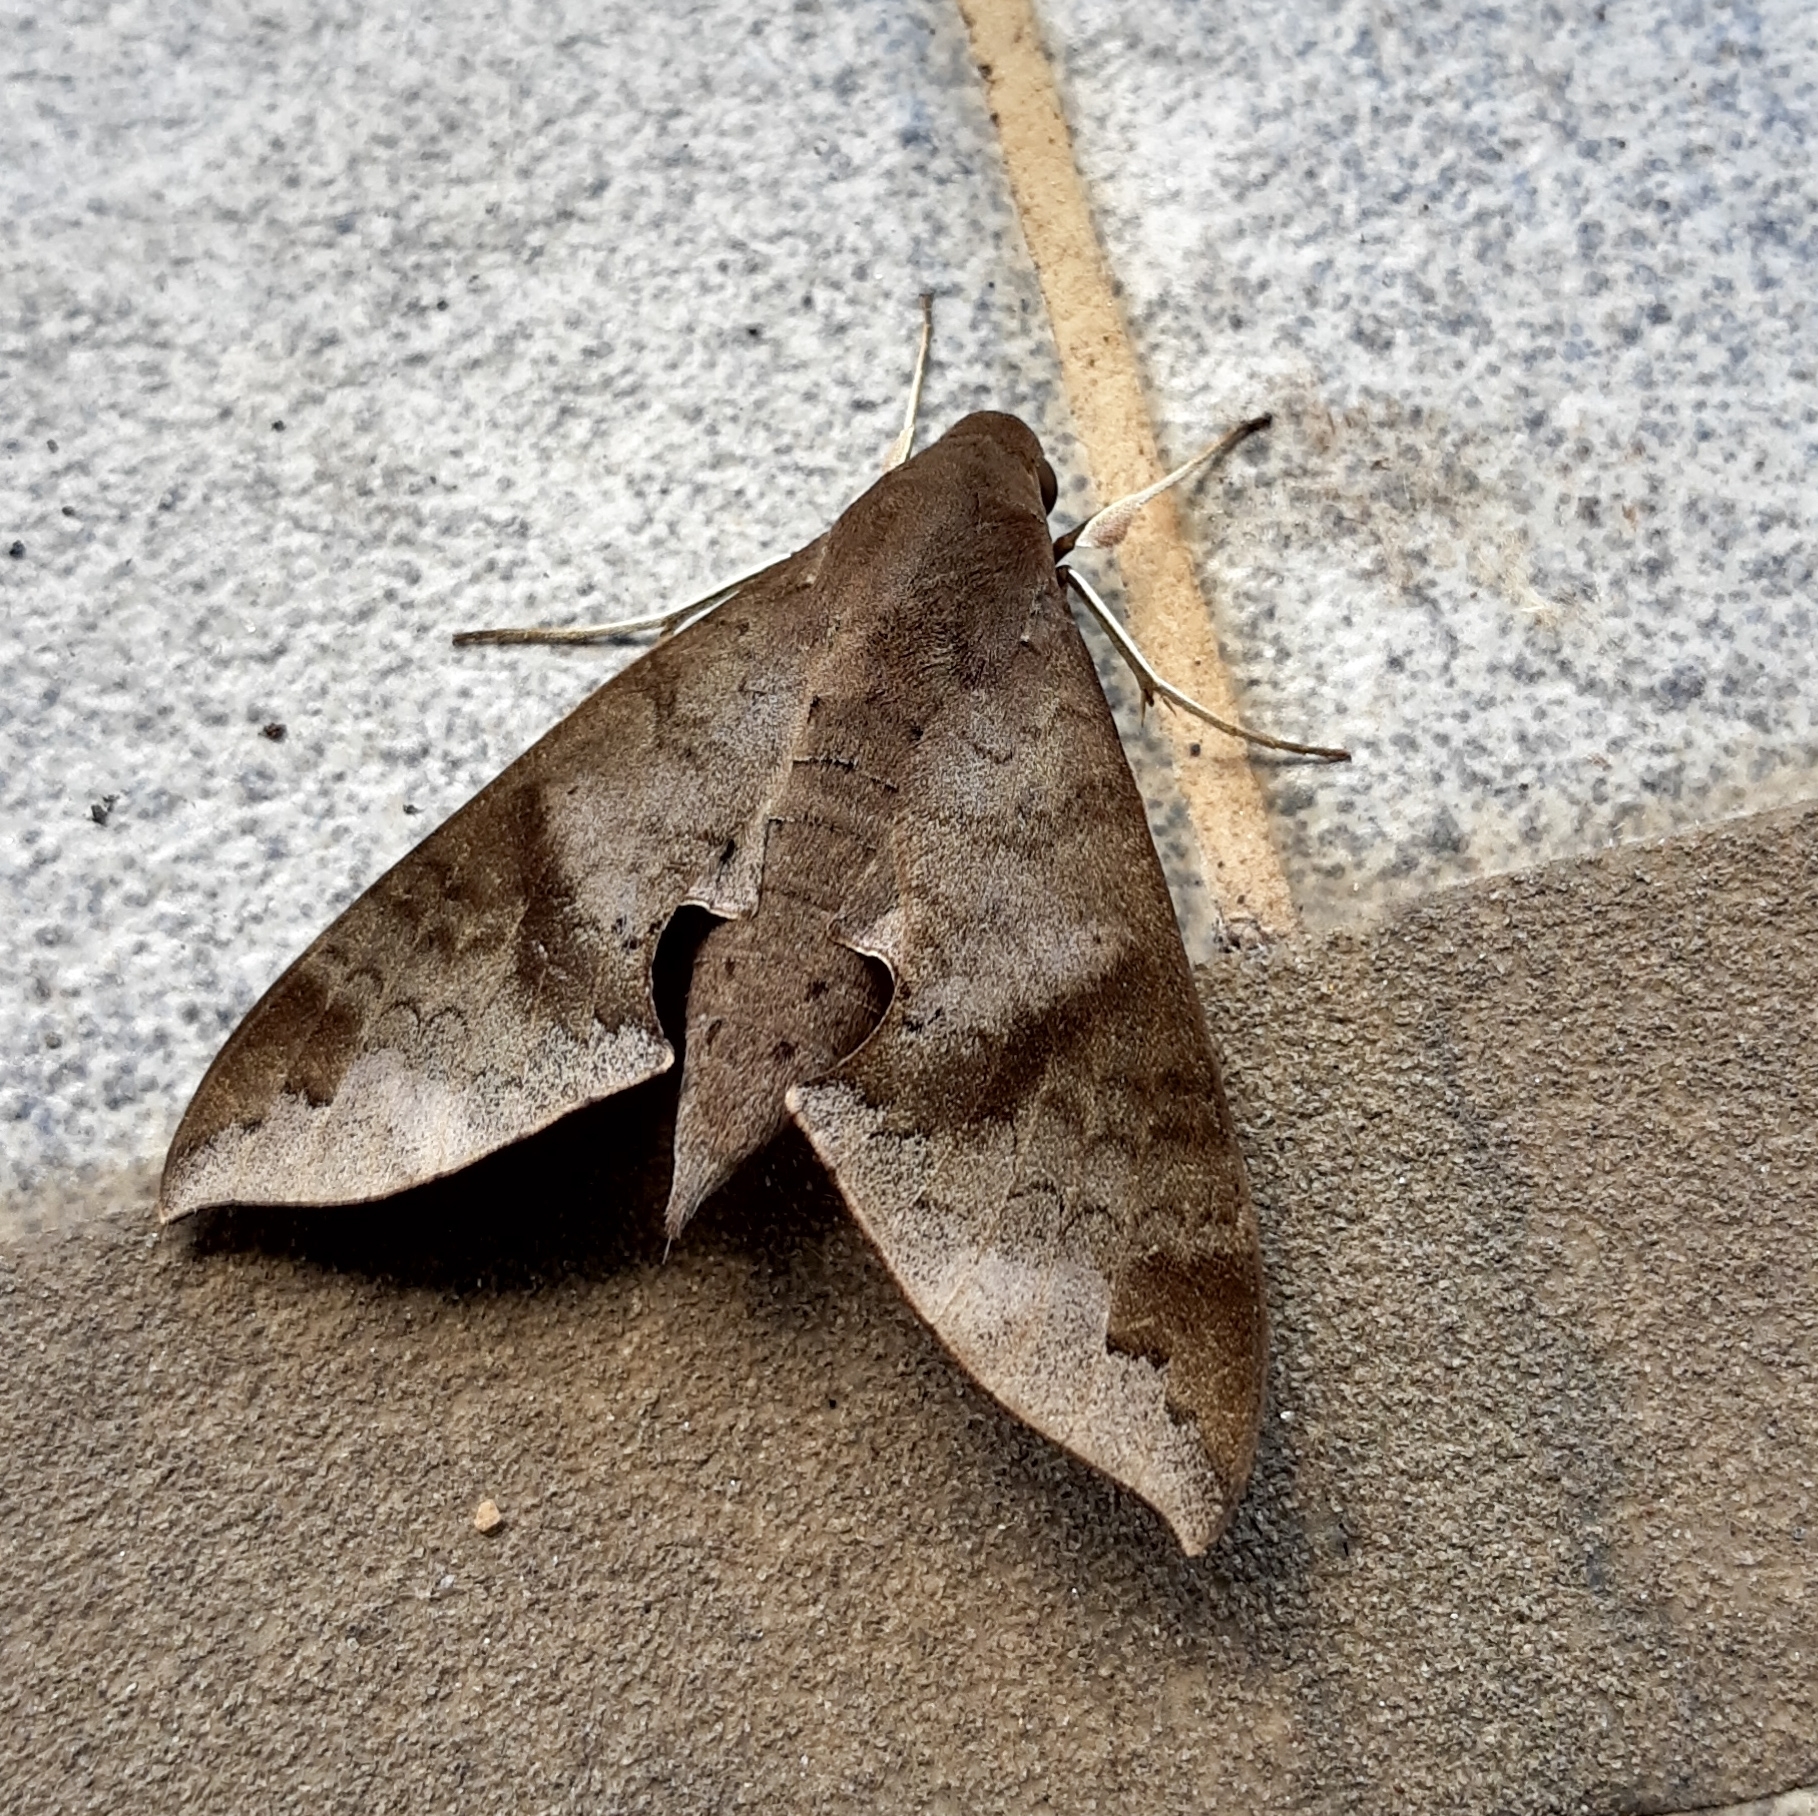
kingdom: Animalia
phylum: Arthropoda
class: Insecta
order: Lepidoptera
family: Sphingidae
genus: Pachylioides
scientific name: Pachylioides resumens
